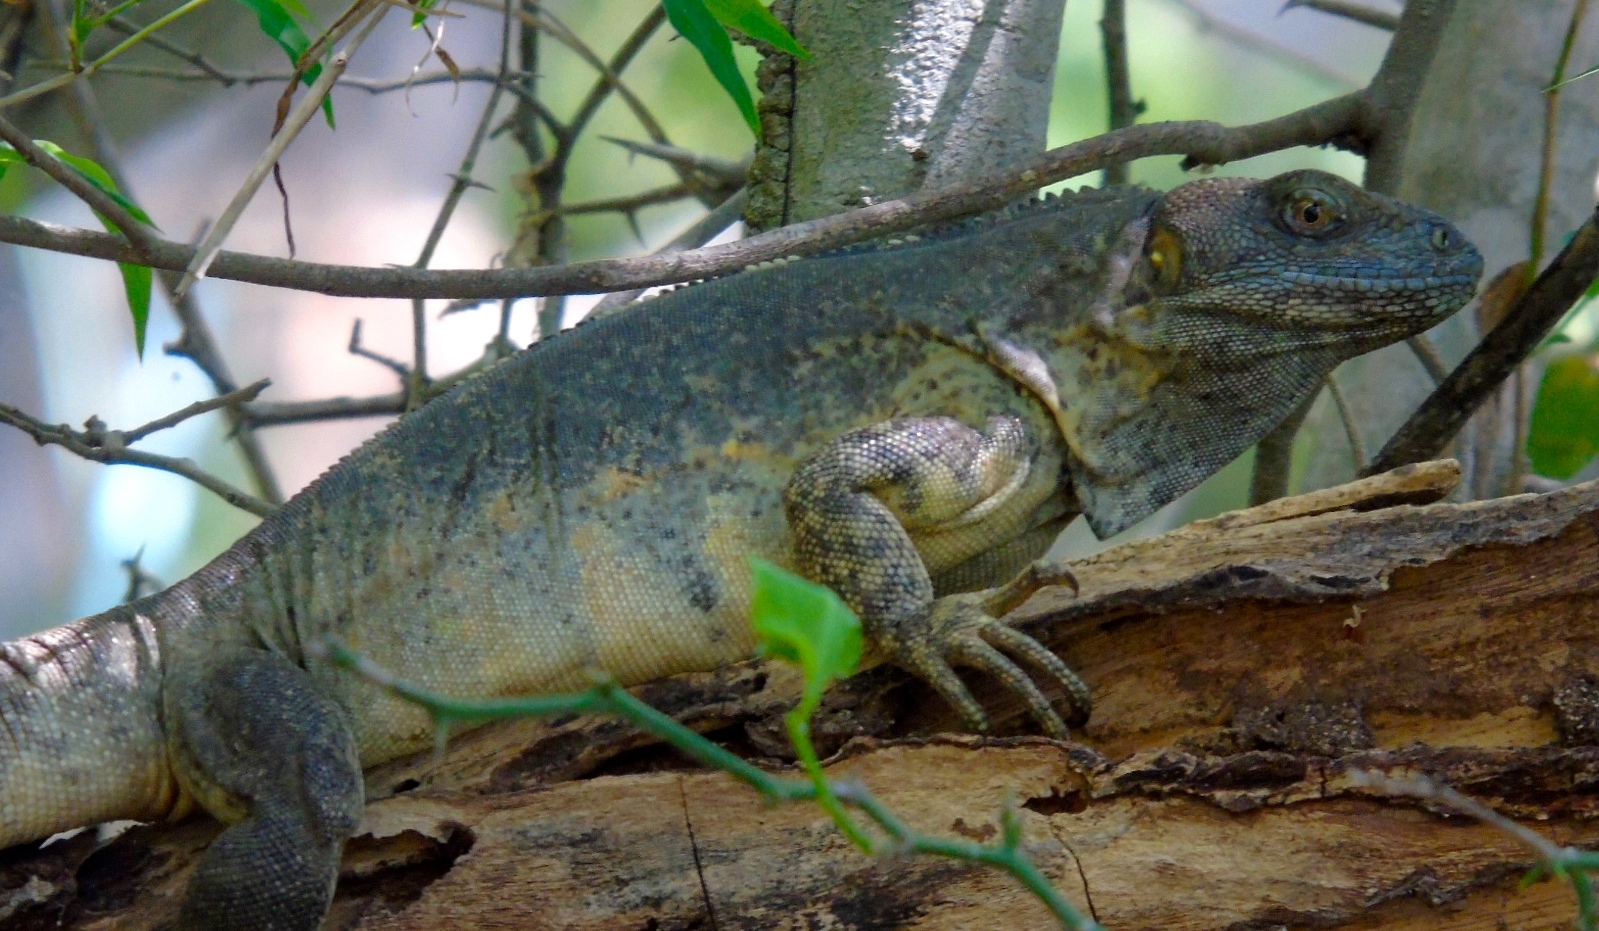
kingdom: Animalia
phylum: Chordata
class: Squamata
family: Iguanidae
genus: Ctenosaura
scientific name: Ctenosaura pectinata
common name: Guerreran spiny-tailed iguana
